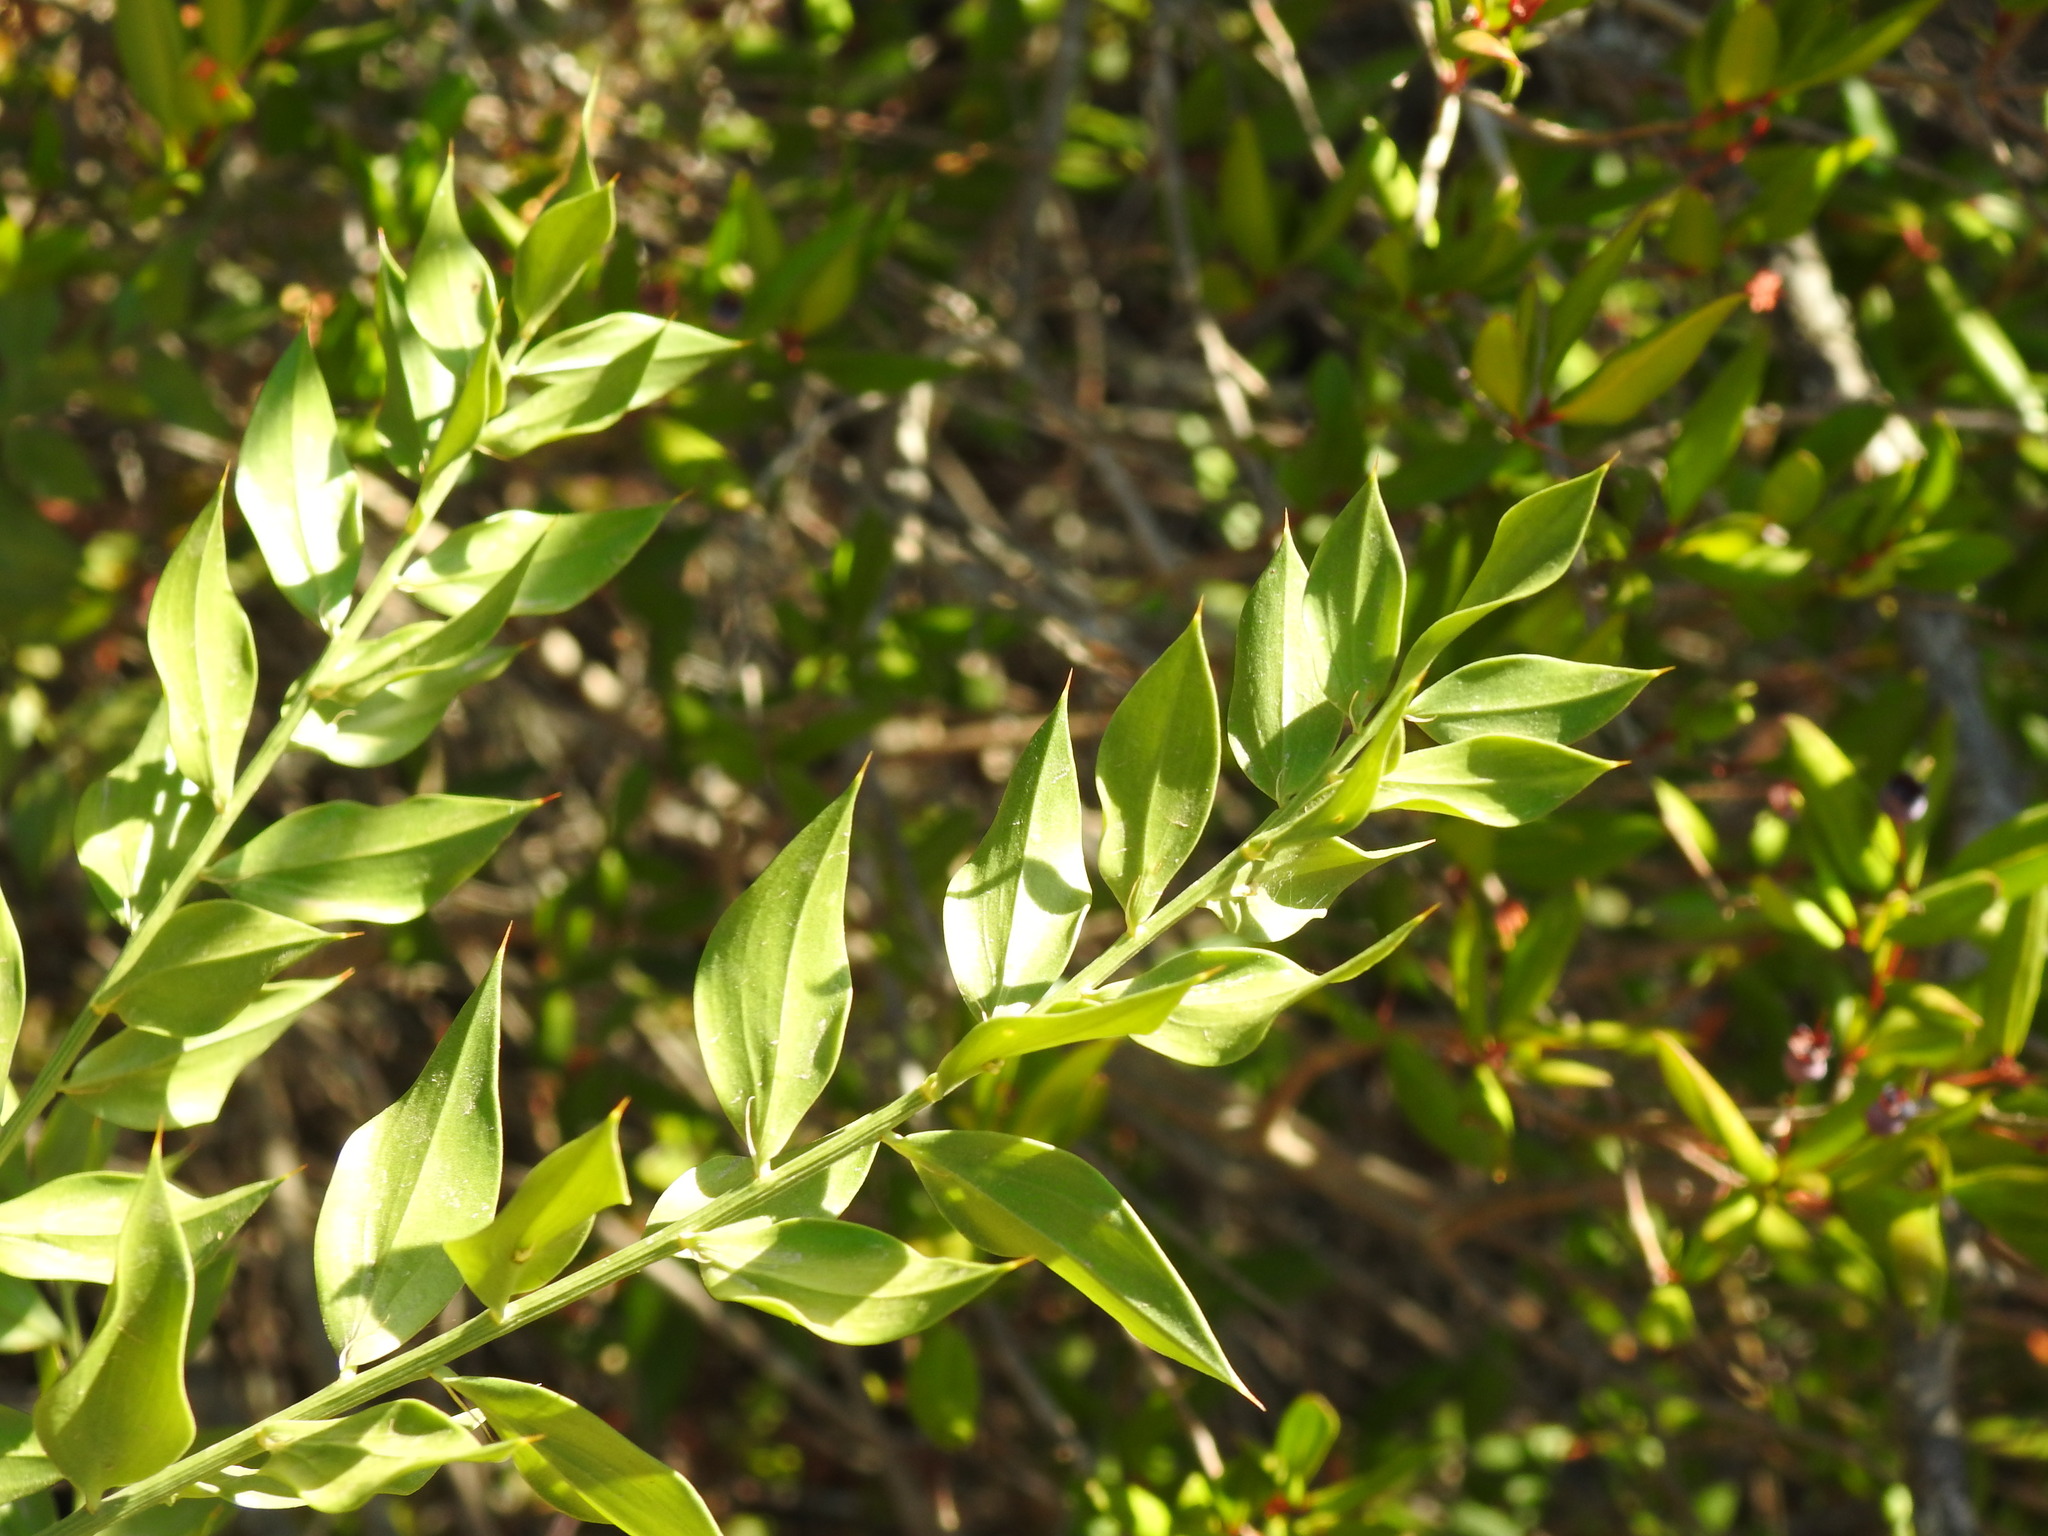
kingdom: Plantae
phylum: Tracheophyta
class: Liliopsida
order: Asparagales
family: Asparagaceae
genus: Ruscus
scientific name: Ruscus aculeatus
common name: Butcher's-broom
